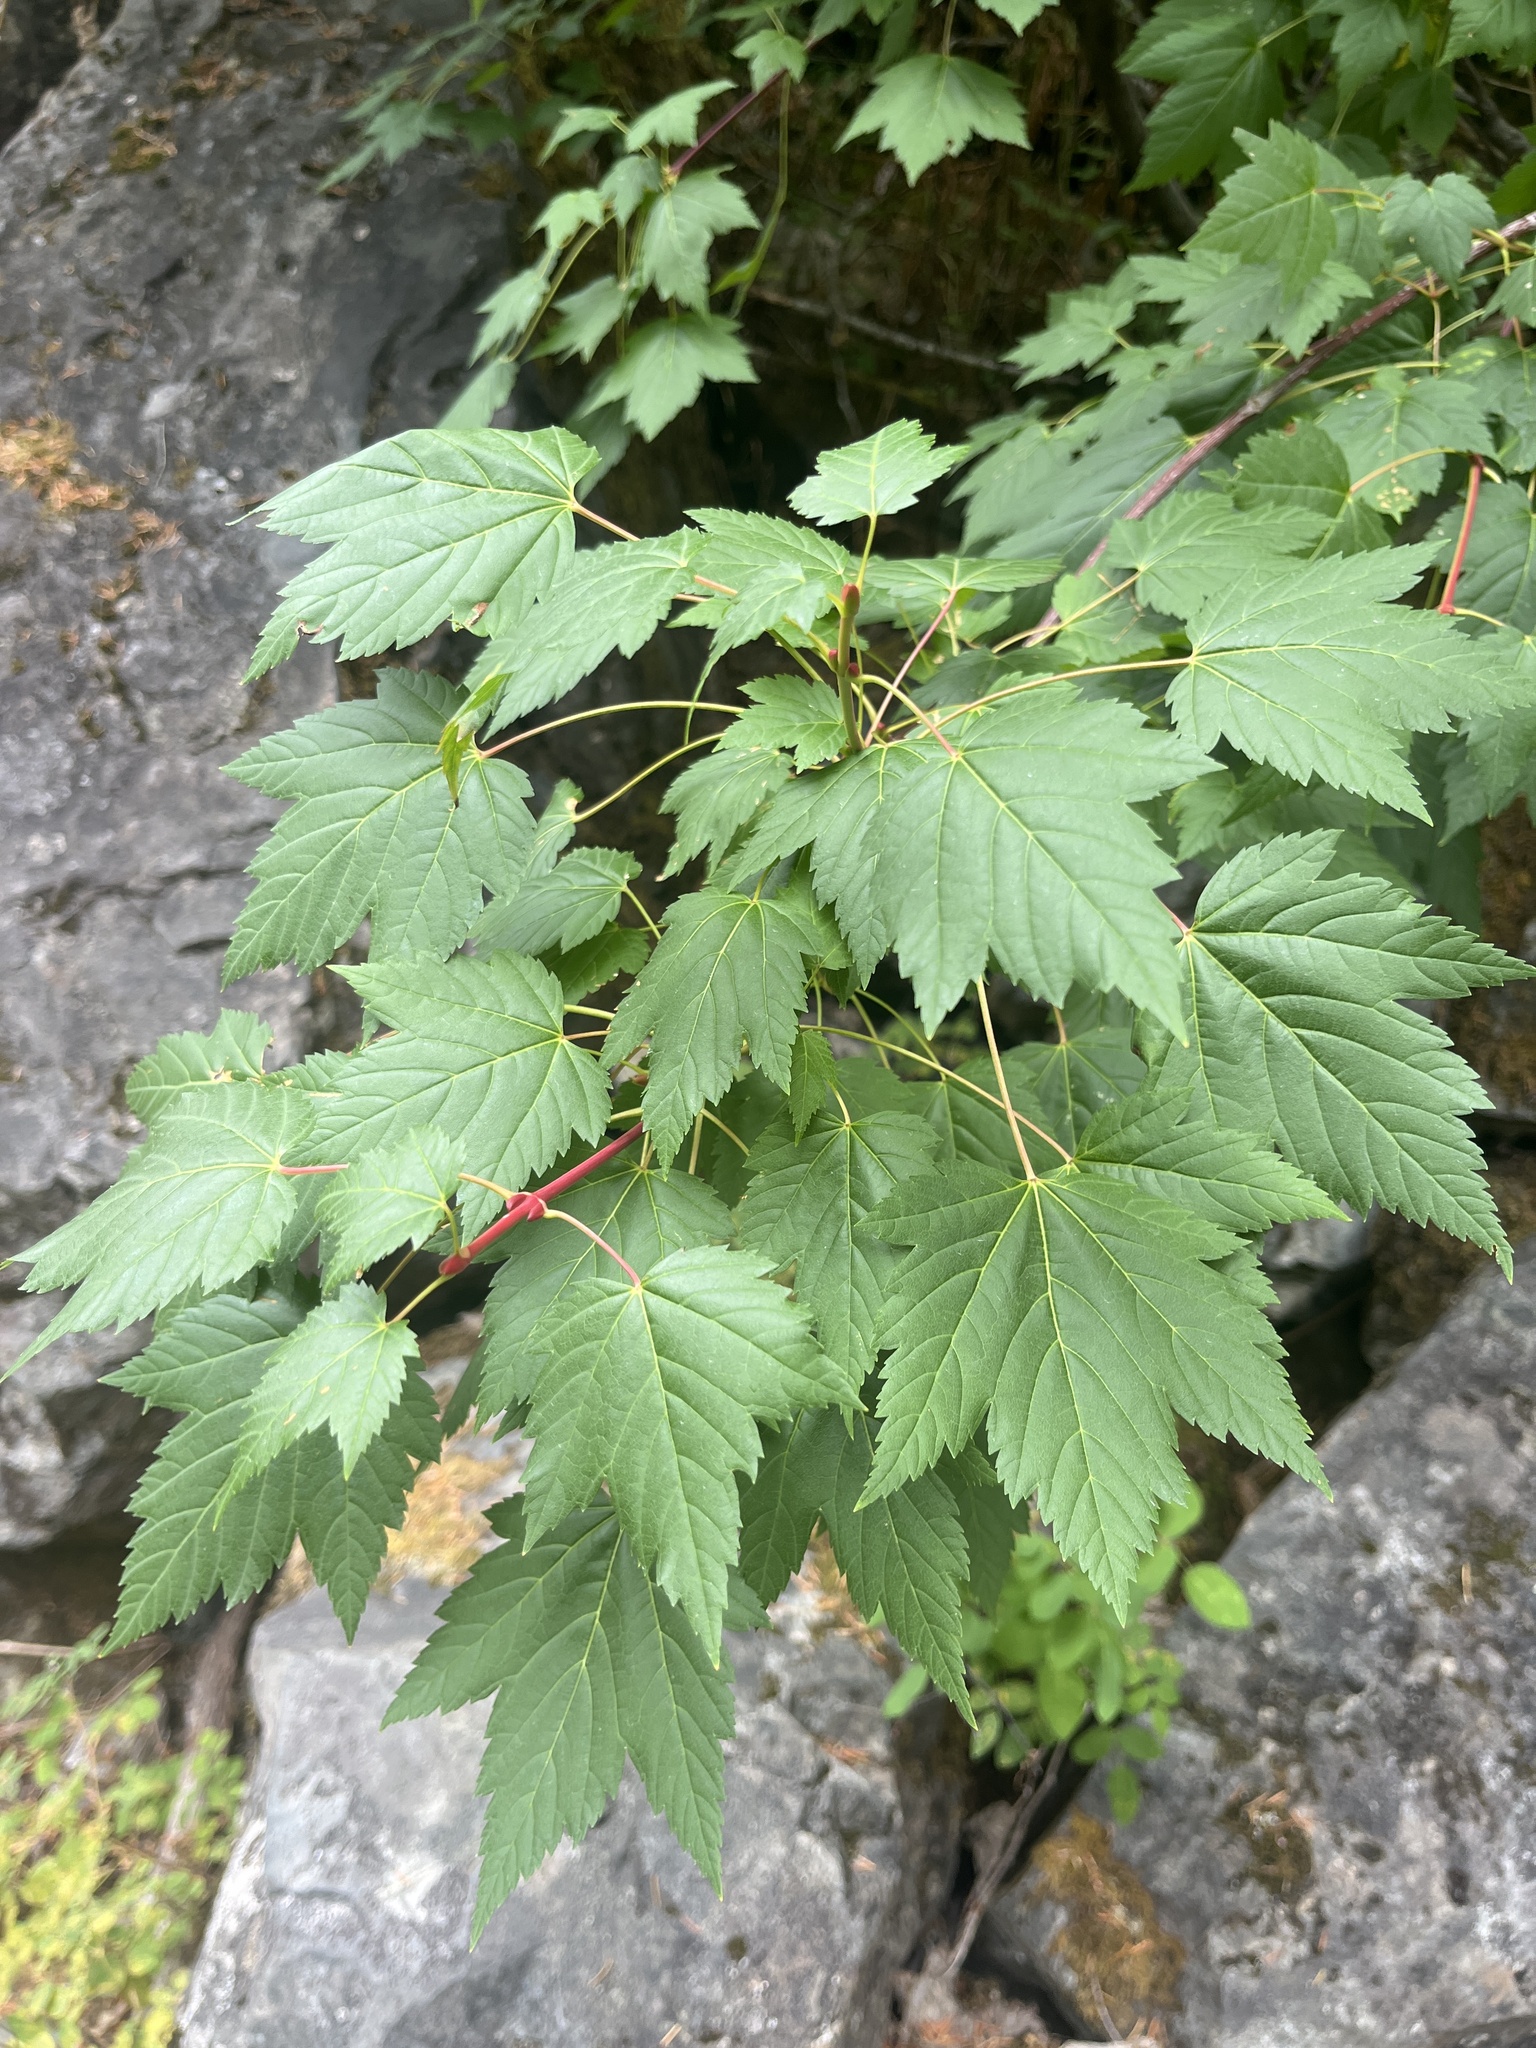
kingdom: Plantae
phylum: Tracheophyta
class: Magnoliopsida
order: Sapindales
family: Sapindaceae
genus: Acer
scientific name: Acer glabrum
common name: Rocky mountain maple
